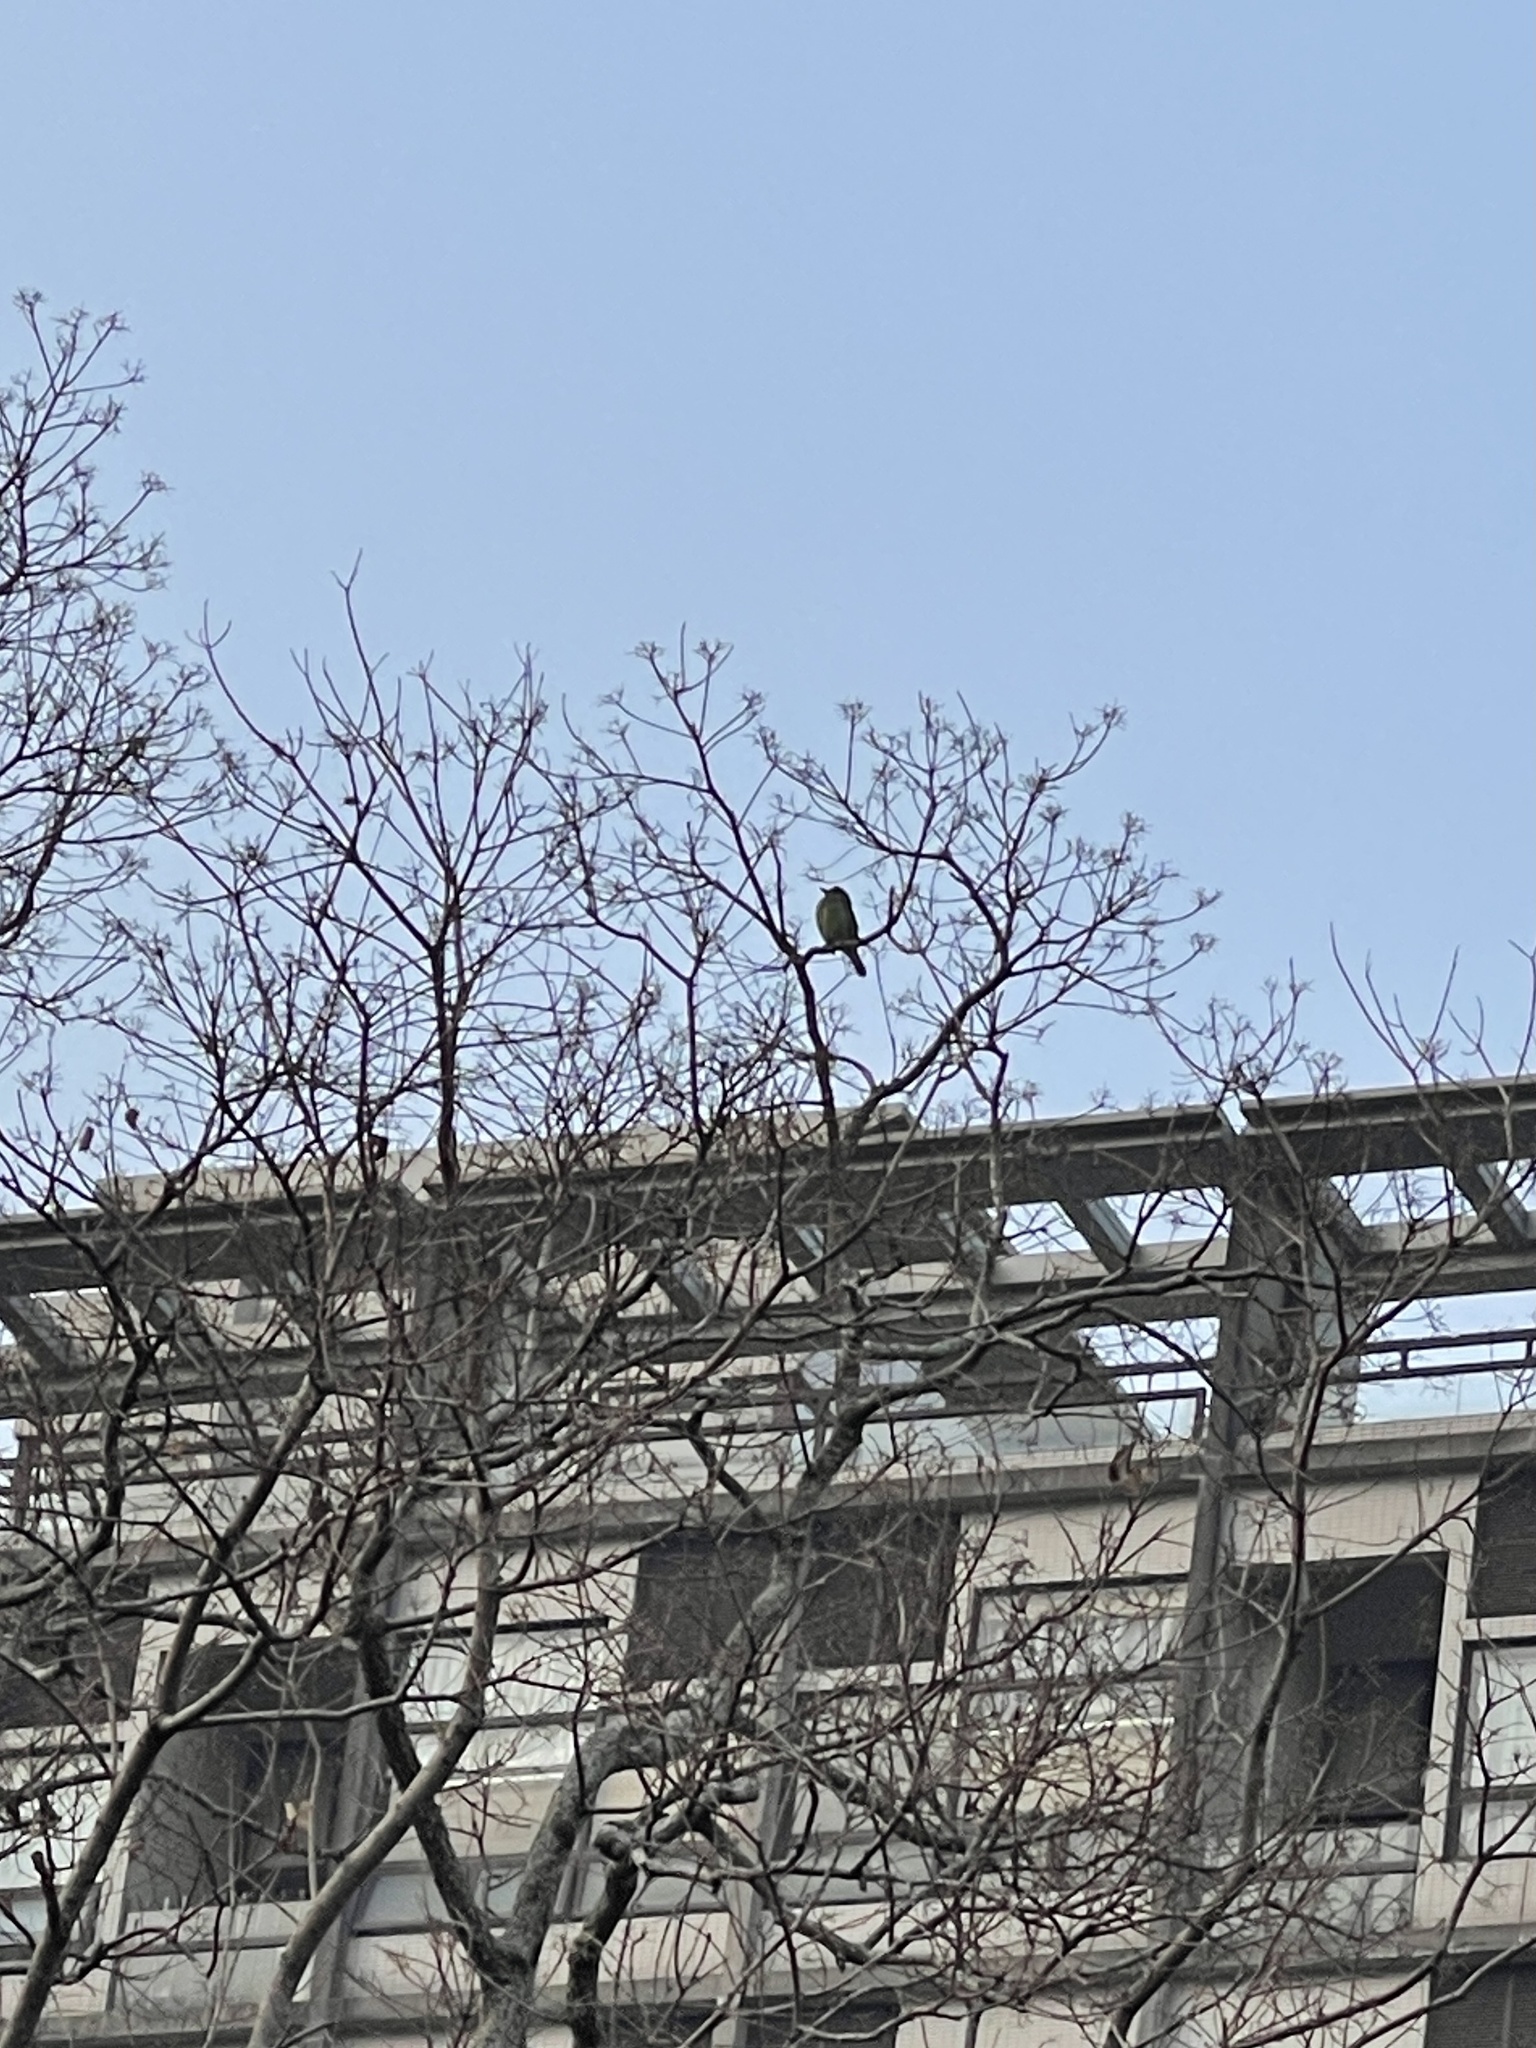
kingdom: Animalia
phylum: Chordata
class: Aves
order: Piciformes
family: Megalaimidae
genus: Psilopogon
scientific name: Psilopogon nuchalis
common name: Taiwan barbet
